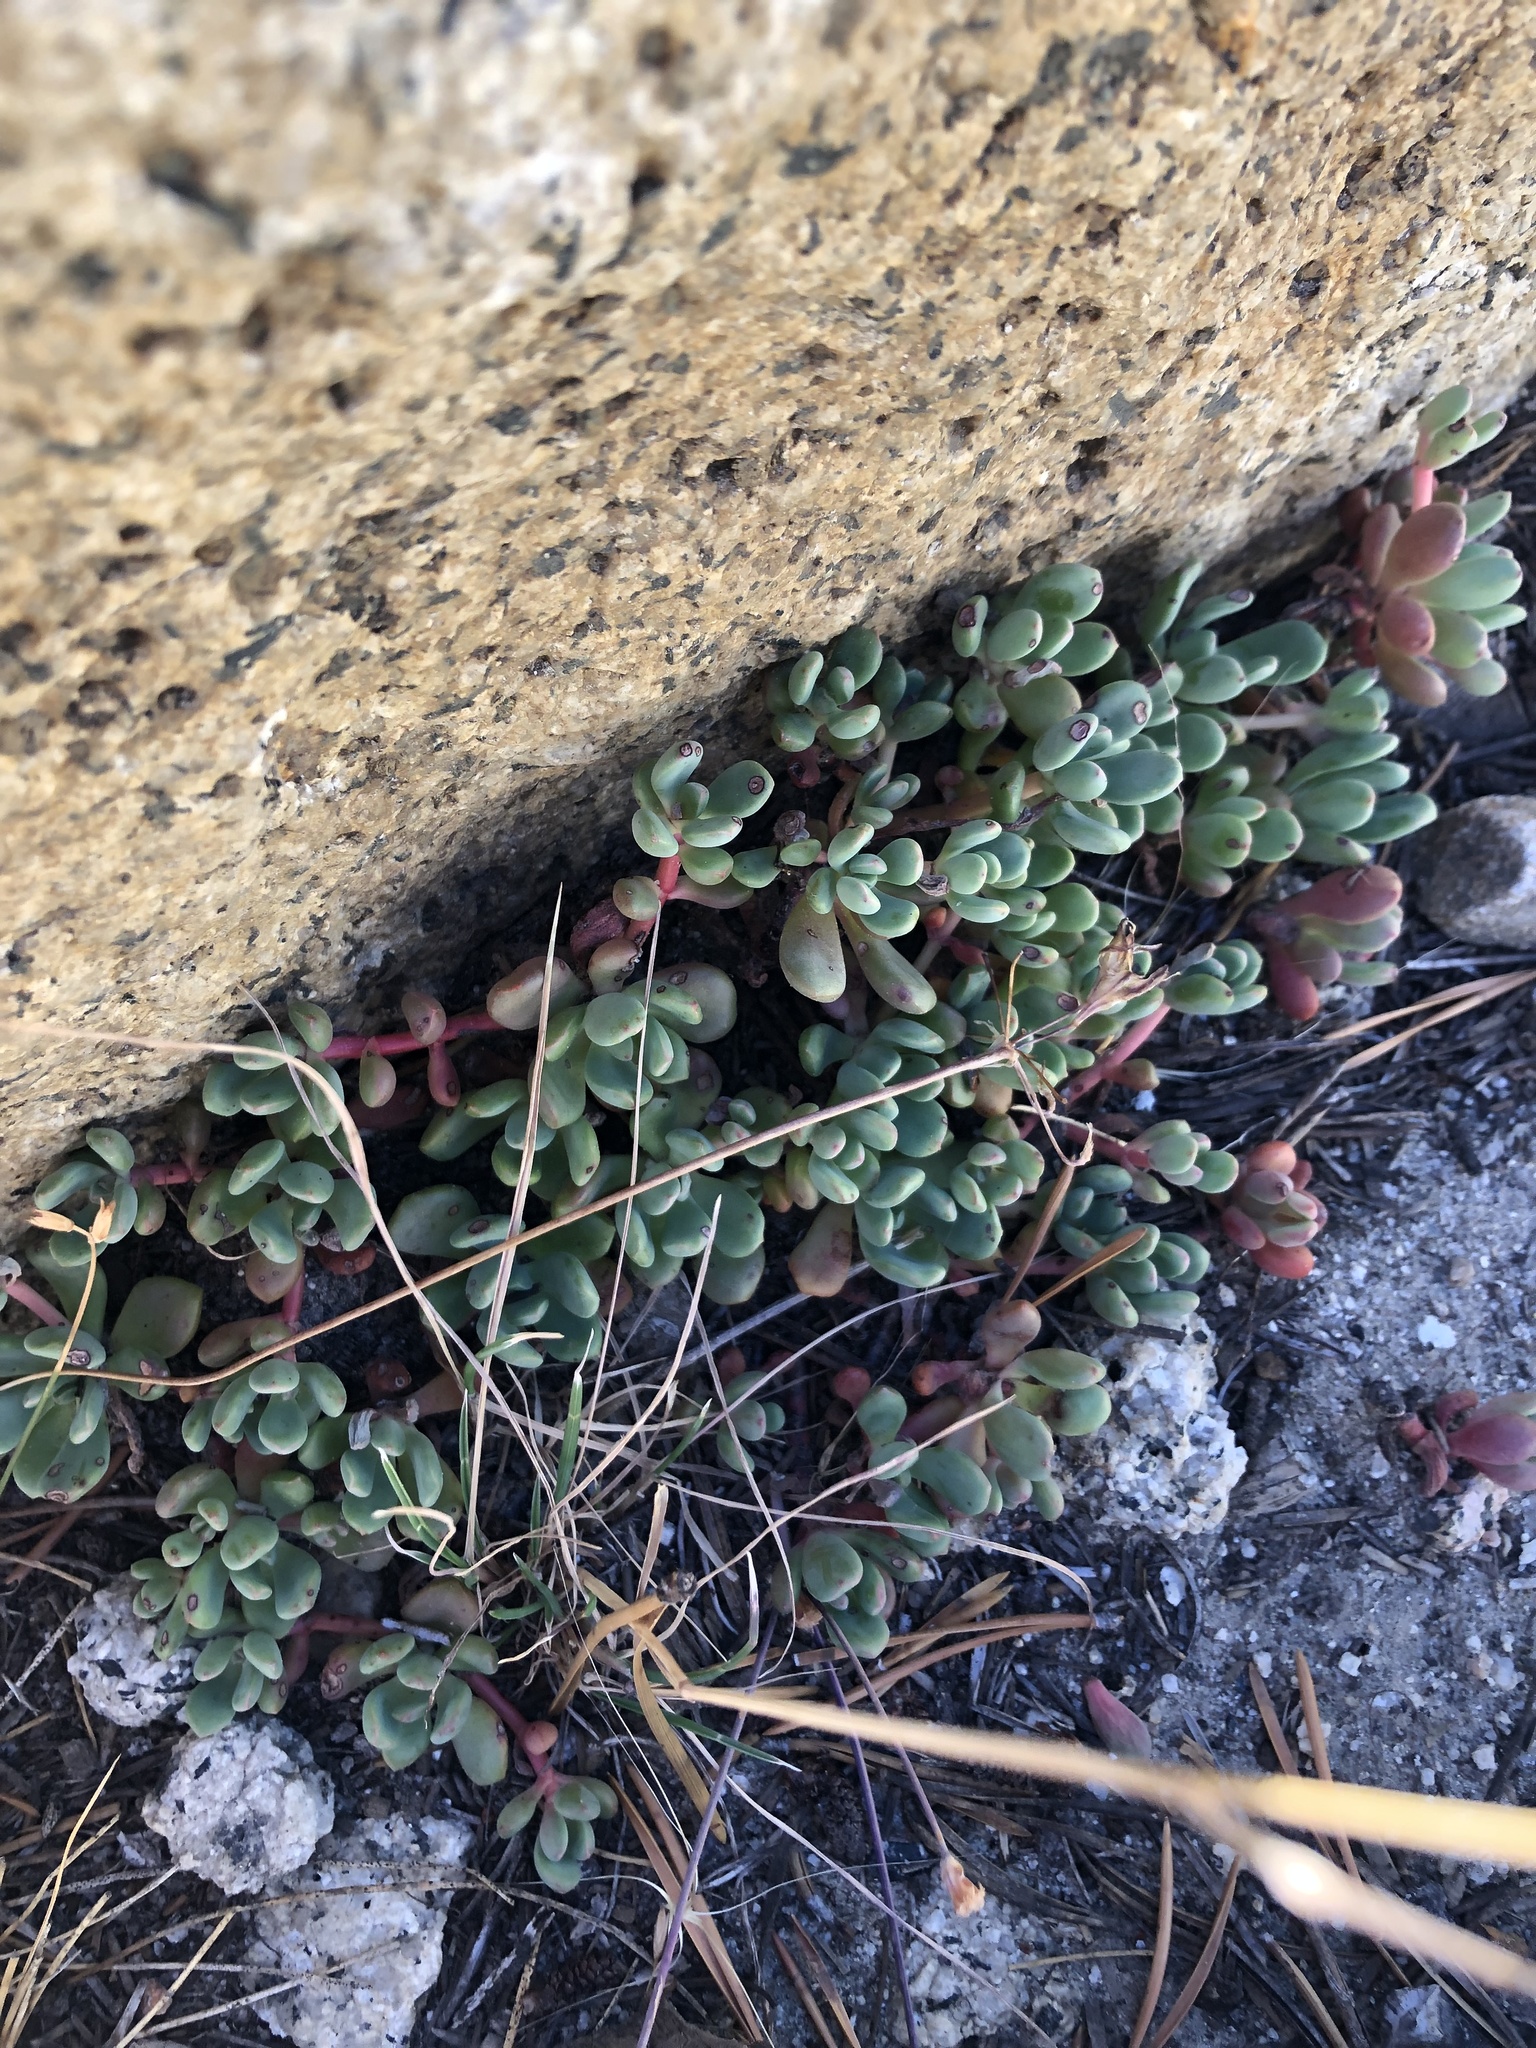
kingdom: Plantae
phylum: Tracheophyta
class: Magnoliopsida
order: Saxifragales
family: Crassulaceae
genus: Sedum
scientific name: Sedum obtusatum
